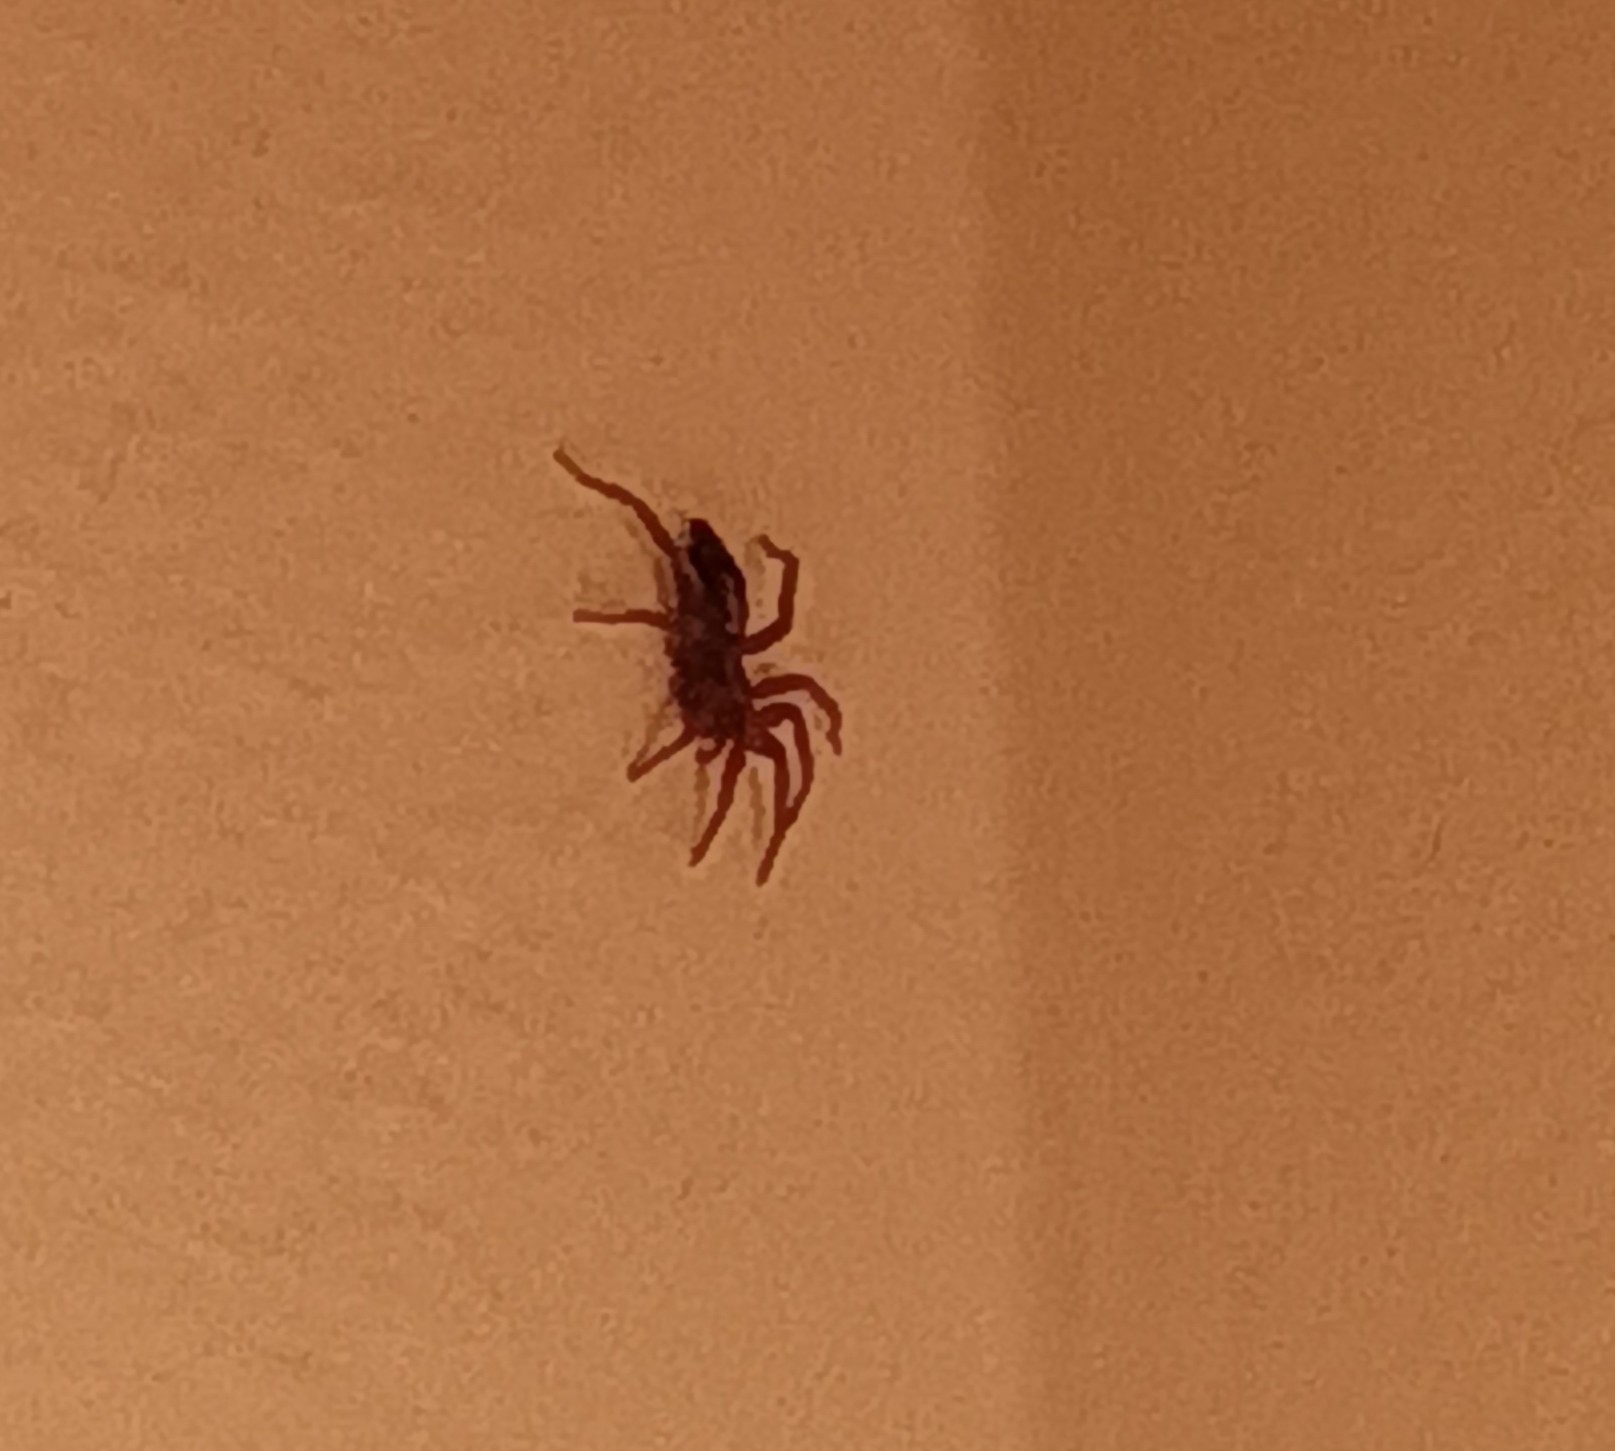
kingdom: Animalia
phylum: Arthropoda
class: Arachnida
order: Araneae
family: Gnaphosidae
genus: Herpyllus
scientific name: Herpyllus ecclesiasticus
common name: Eastern parson spider
